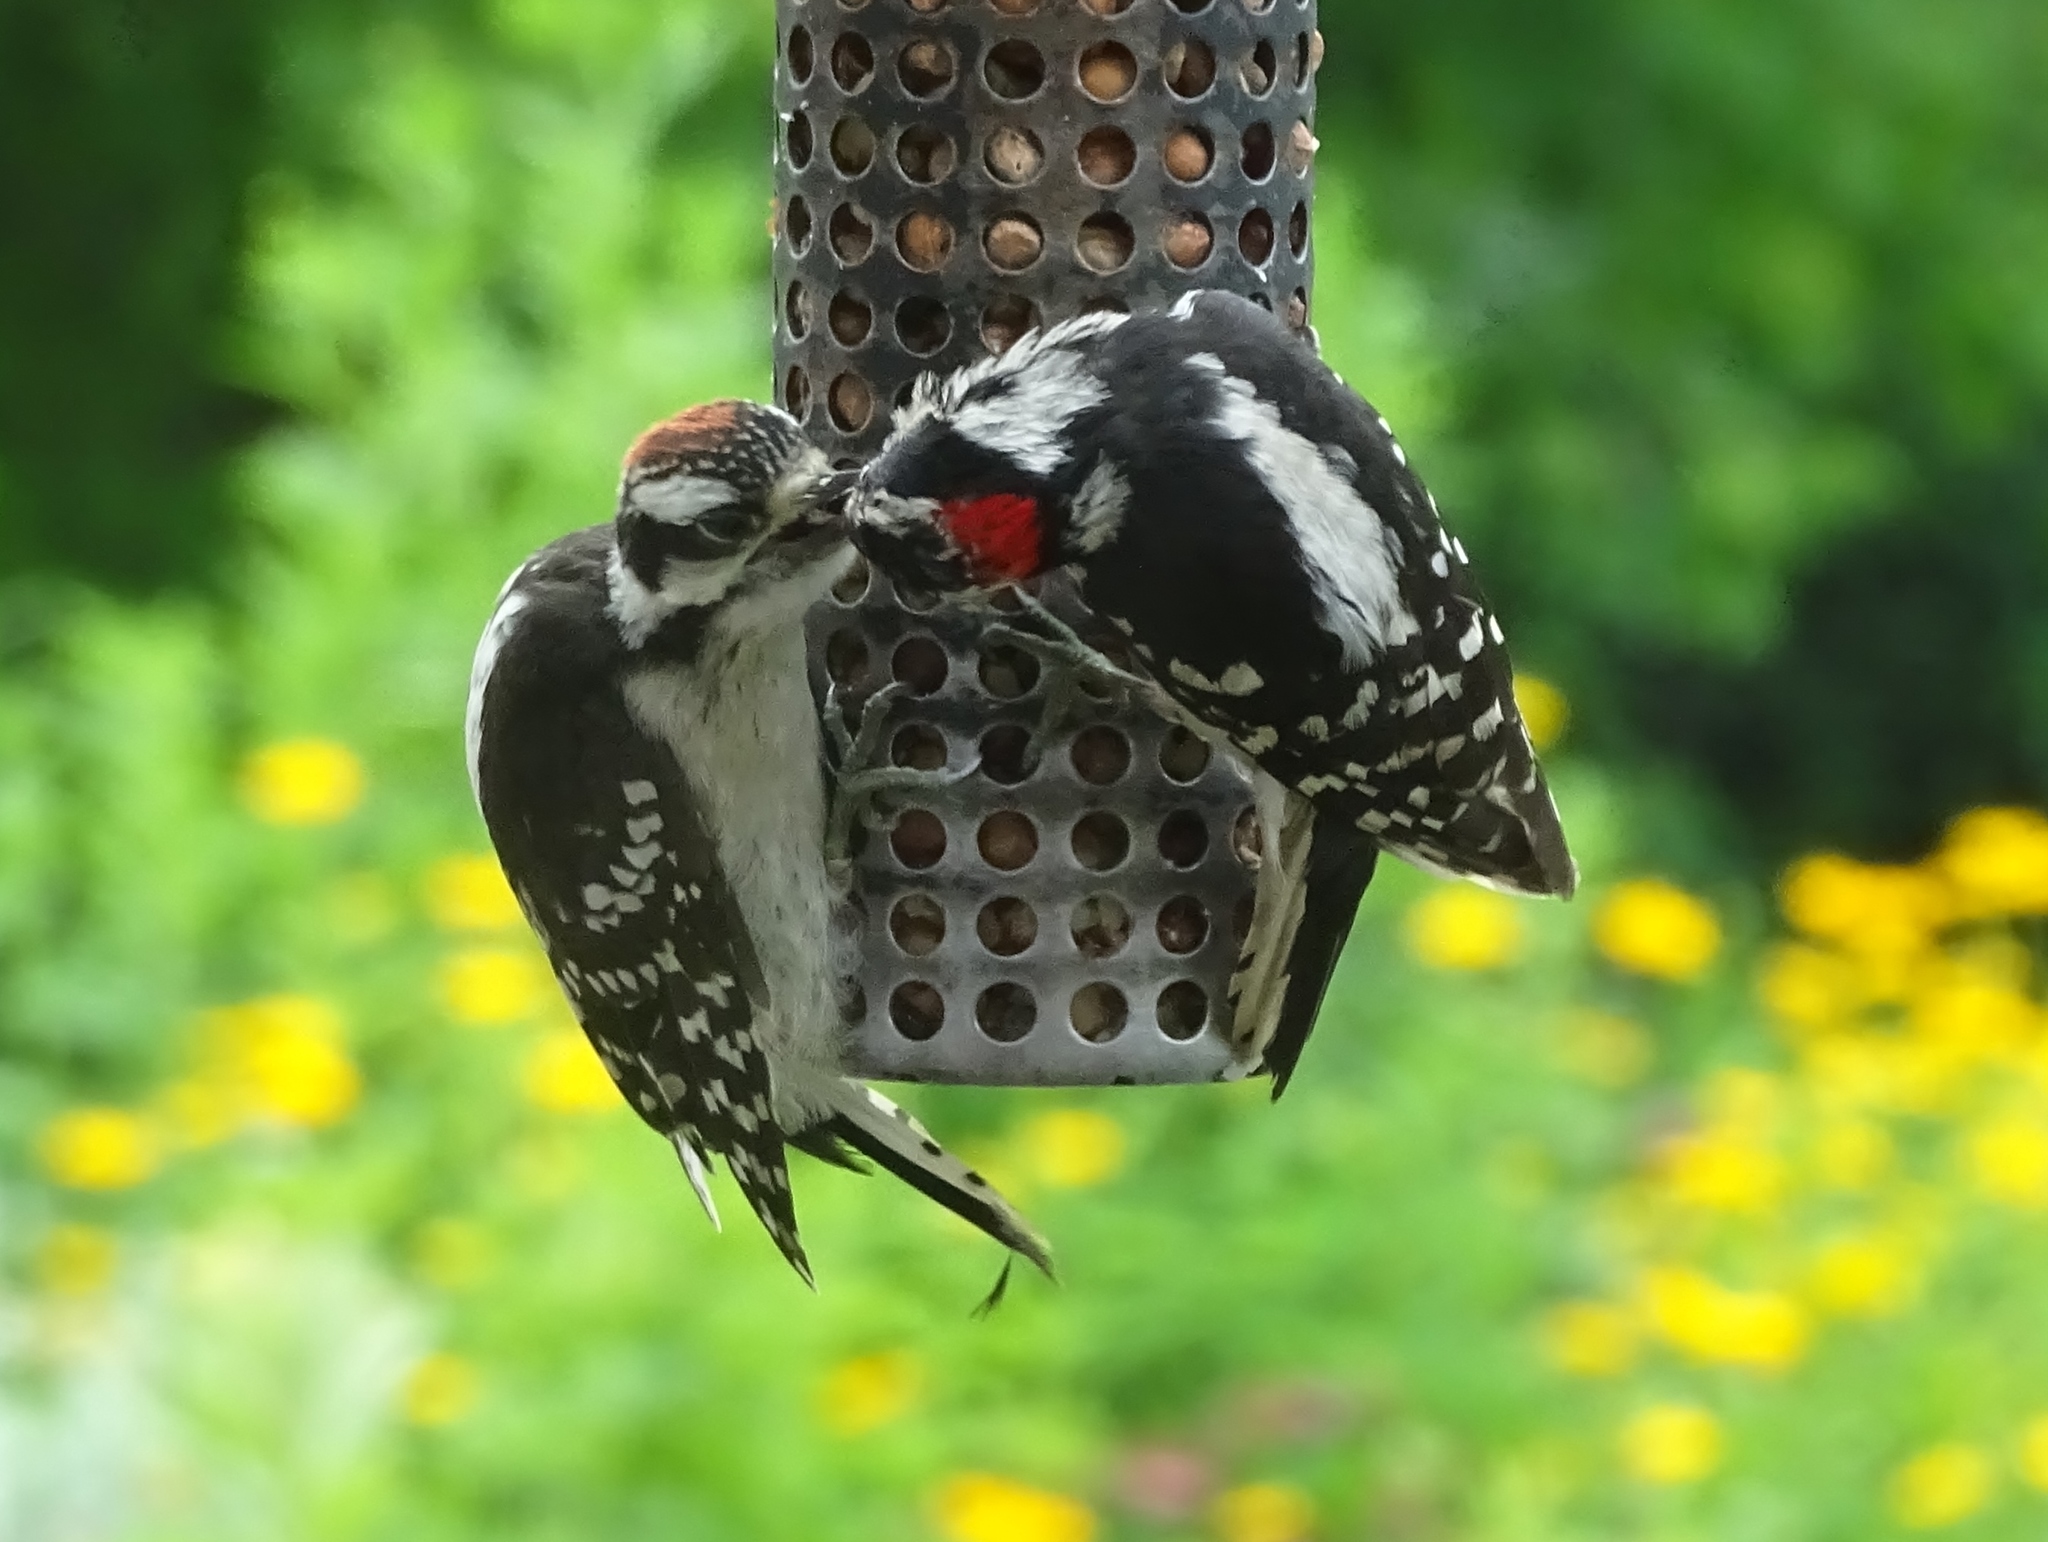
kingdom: Animalia
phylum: Chordata
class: Aves
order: Piciformes
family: Picidae
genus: Dryobates
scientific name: Dryobates pubescens
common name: Downy woodpecker
